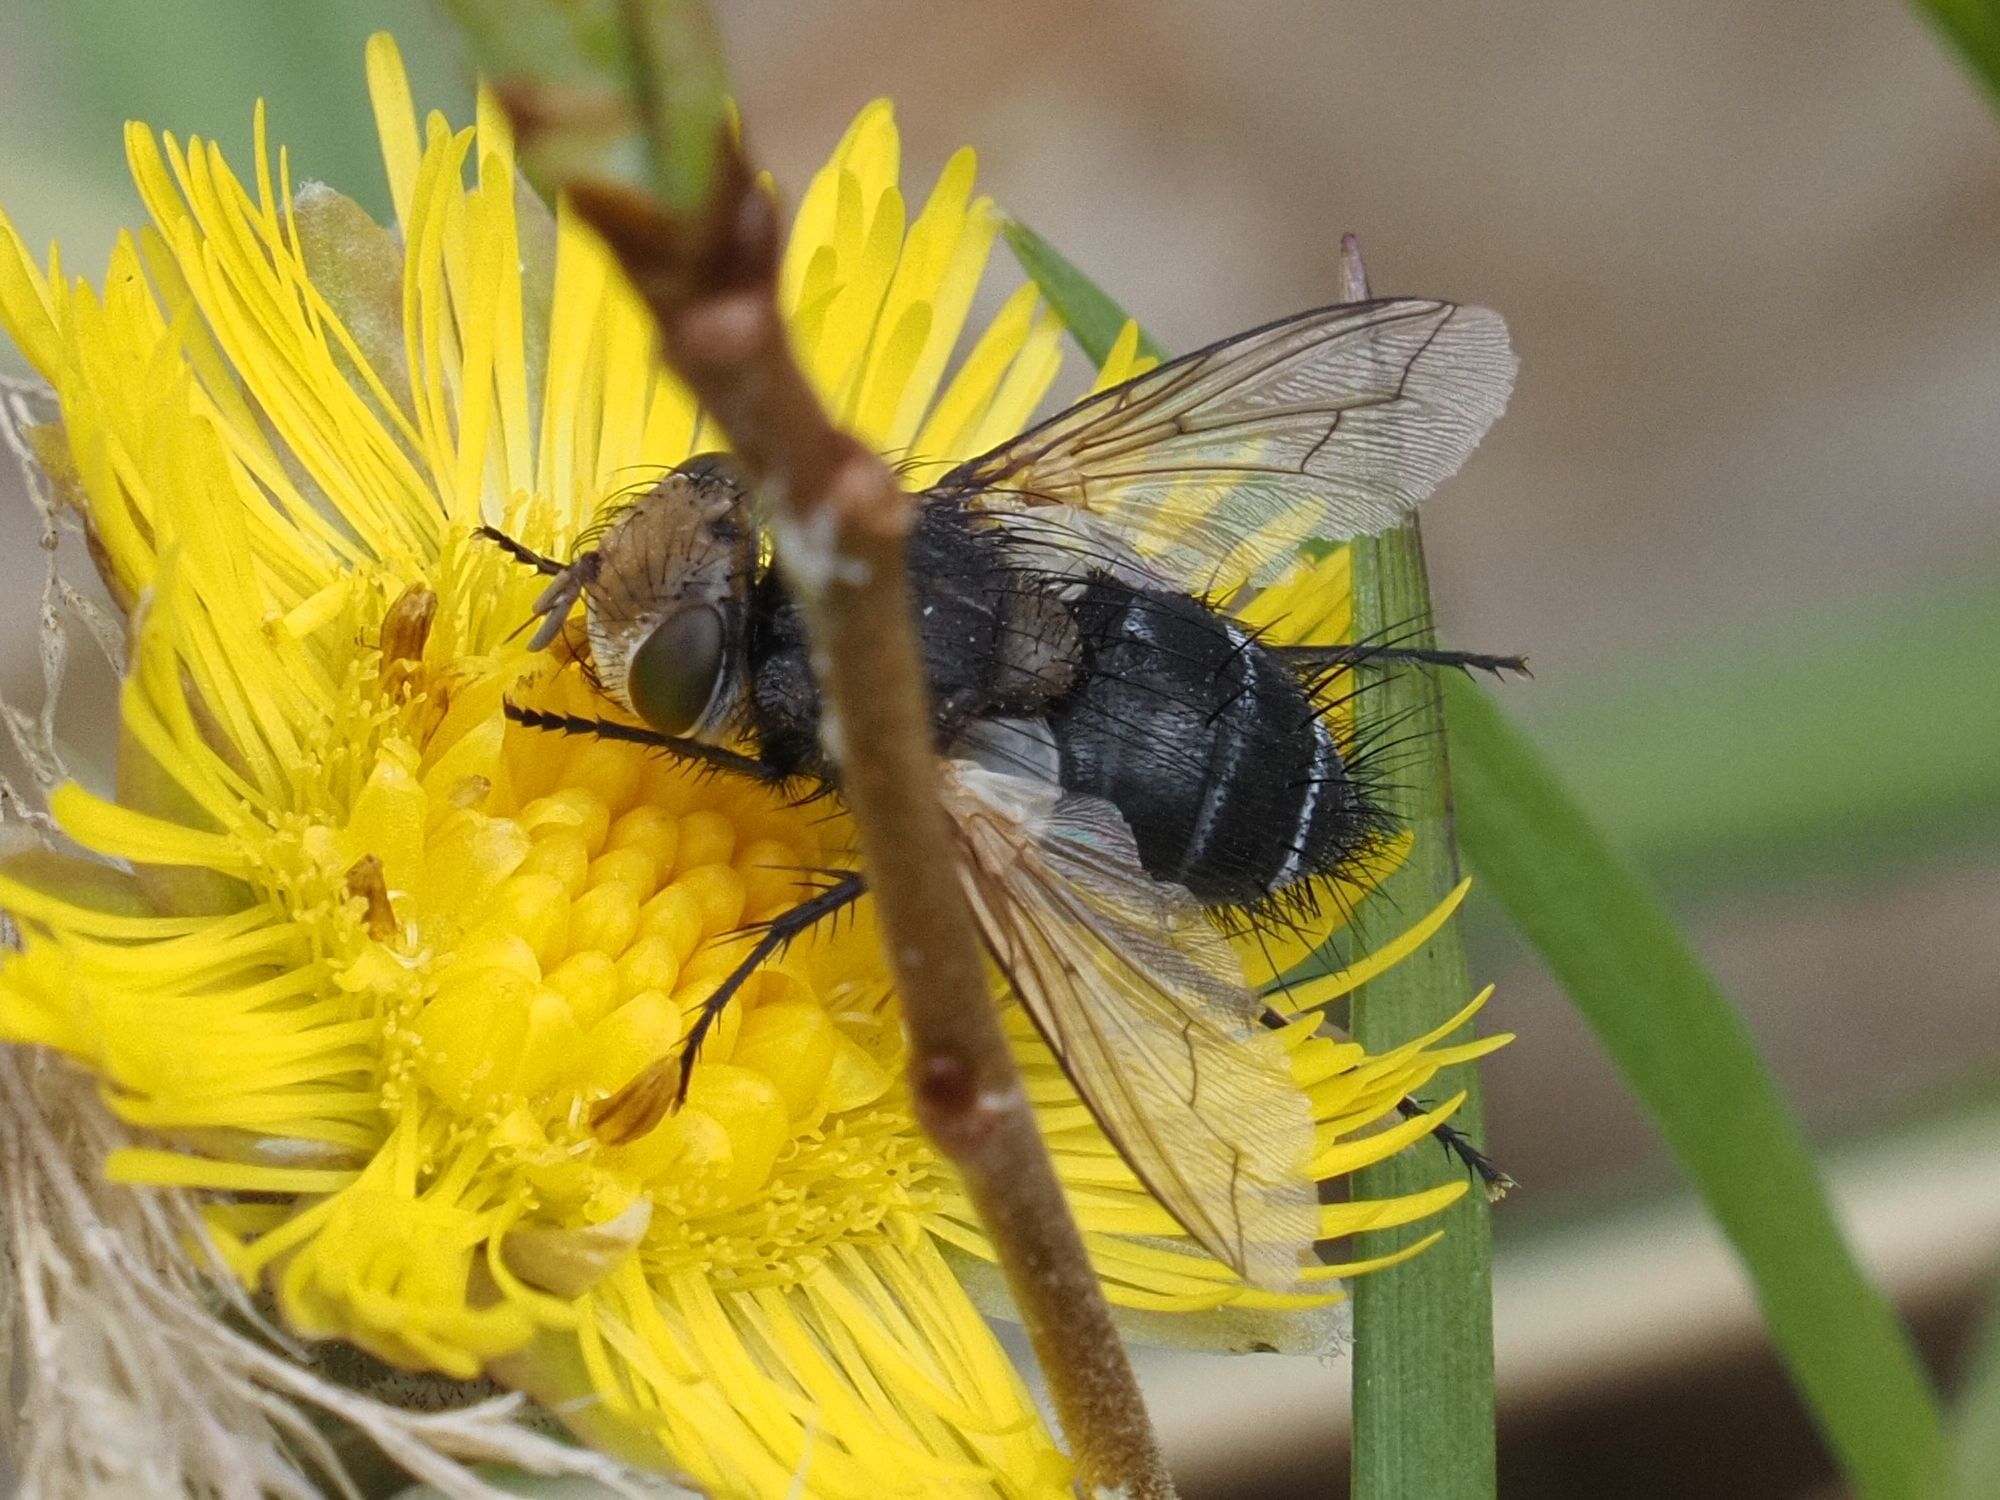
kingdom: Animalia
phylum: Arthropoda
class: Insecta
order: Diptera
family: Tachinidae
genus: Gonia
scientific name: Gonia picea
